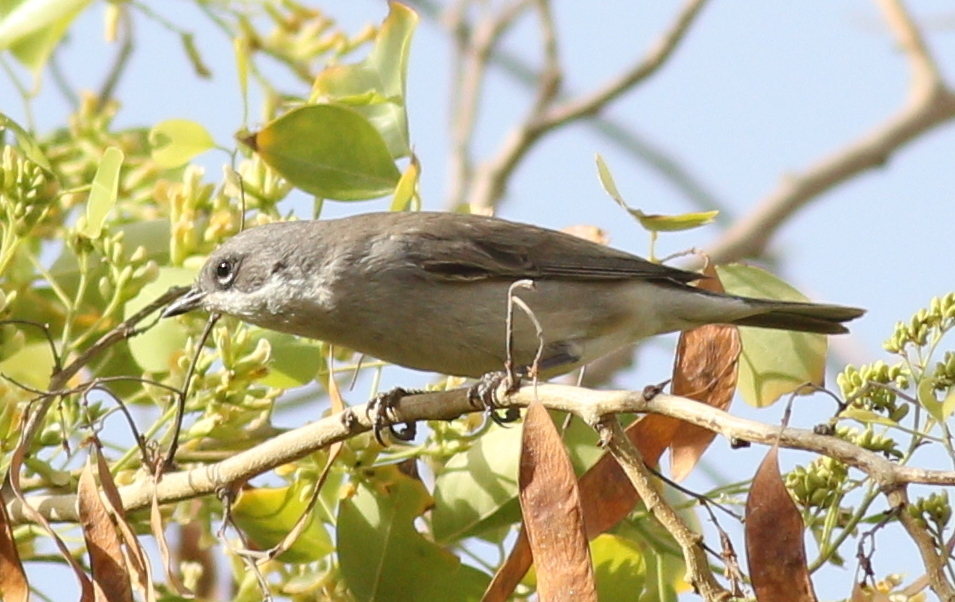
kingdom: Animalia
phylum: Chordata
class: Aves
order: Passeriformes
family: Sylviidae
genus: Sylvia
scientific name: Sylvia curruca
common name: Lesser whitethroat
